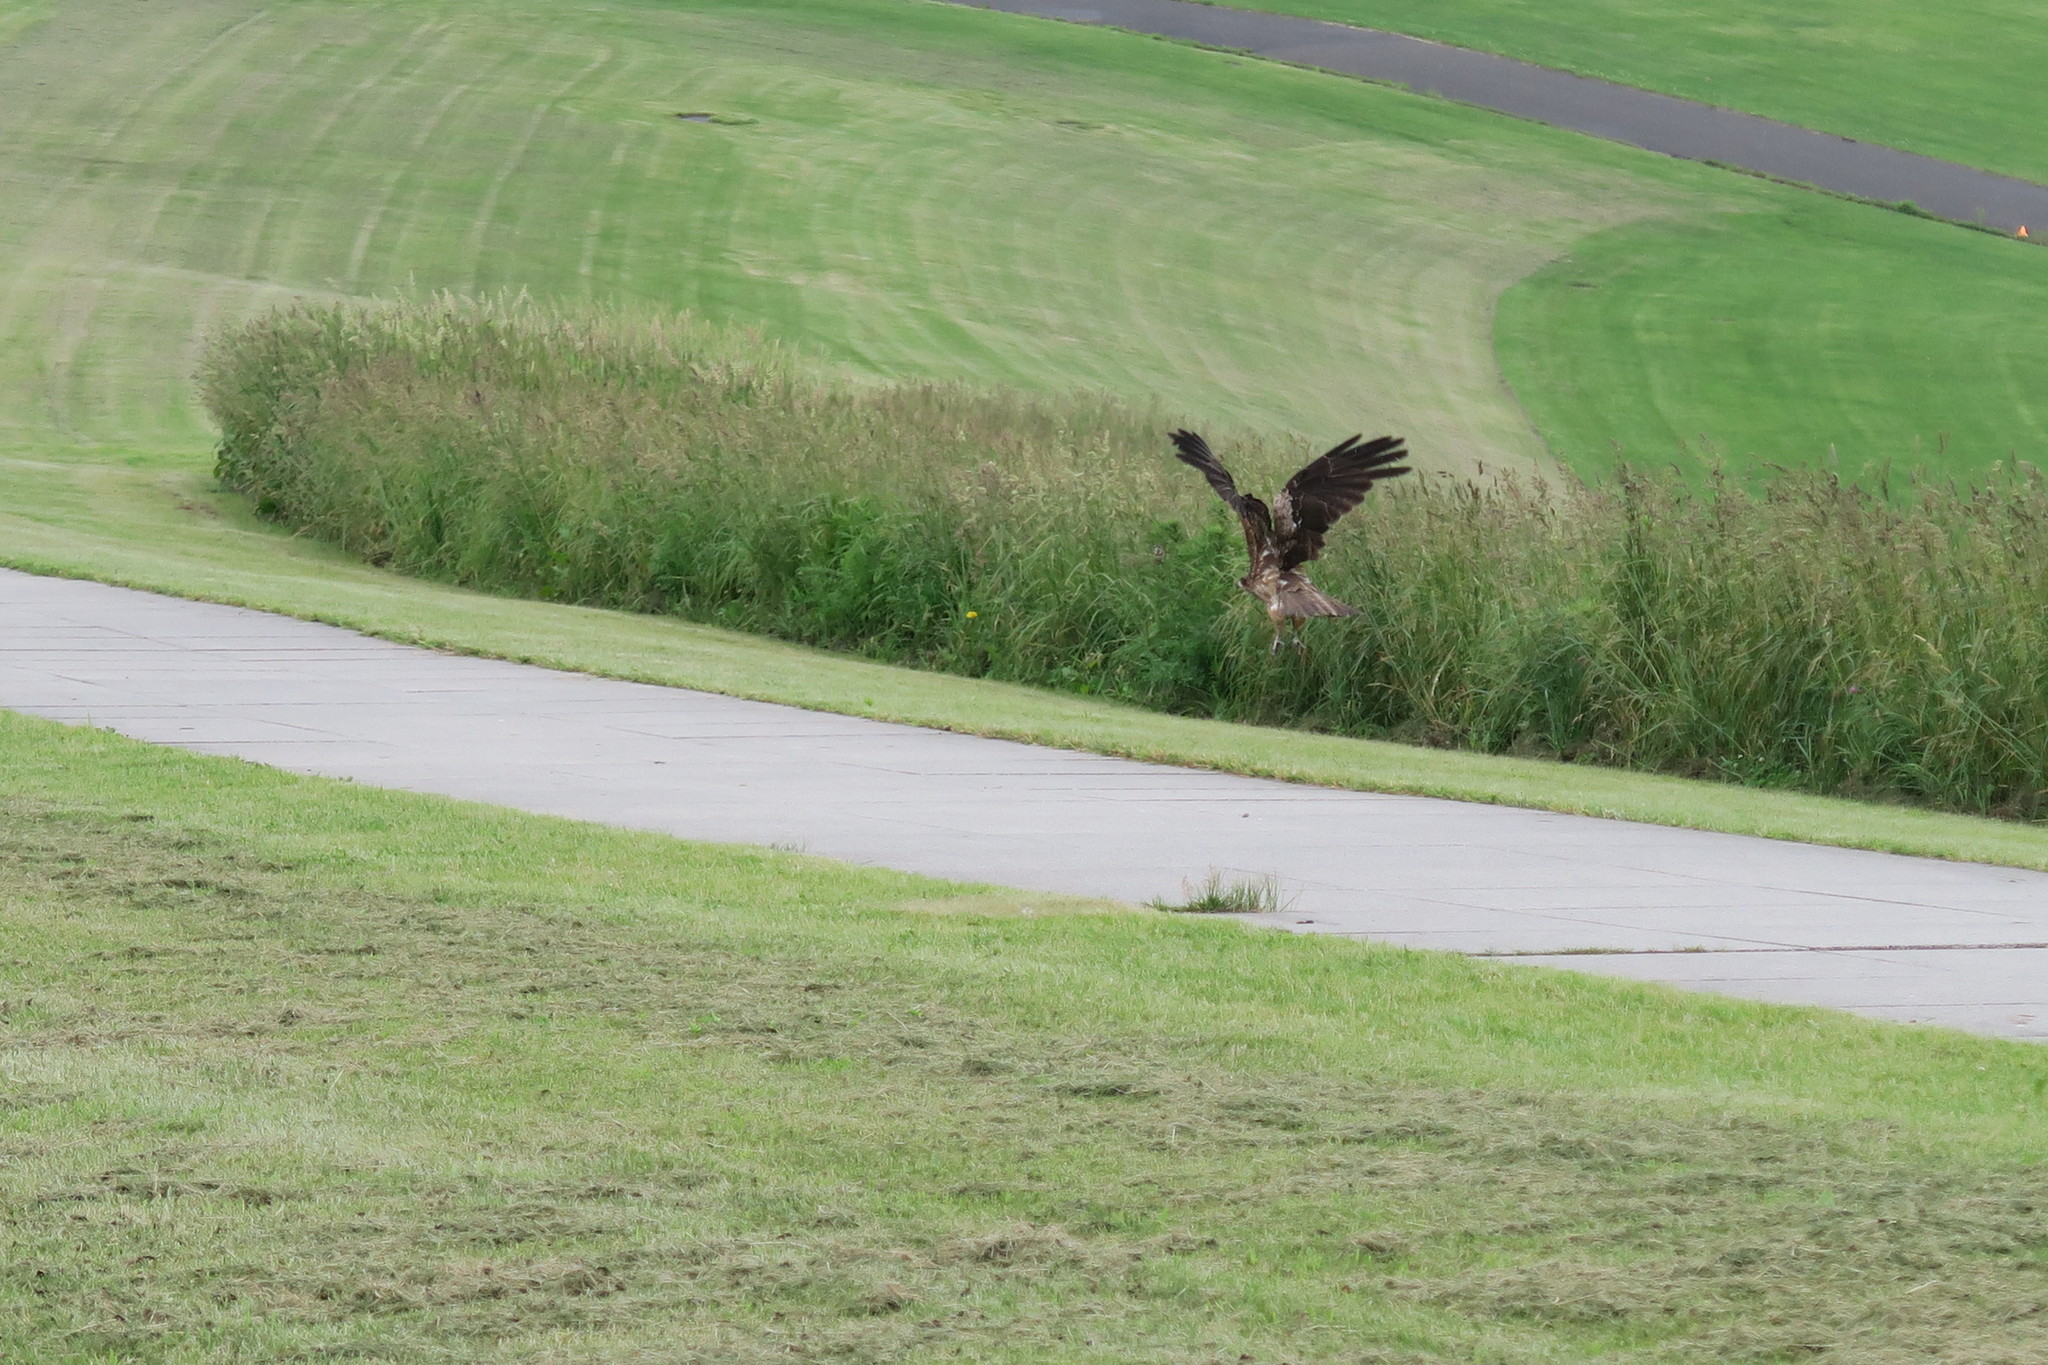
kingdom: Animalia
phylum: Chordata
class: Aves
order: Accipitriformes
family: Accipitridae
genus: Milvus
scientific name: Milvus migrans
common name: Black kite
